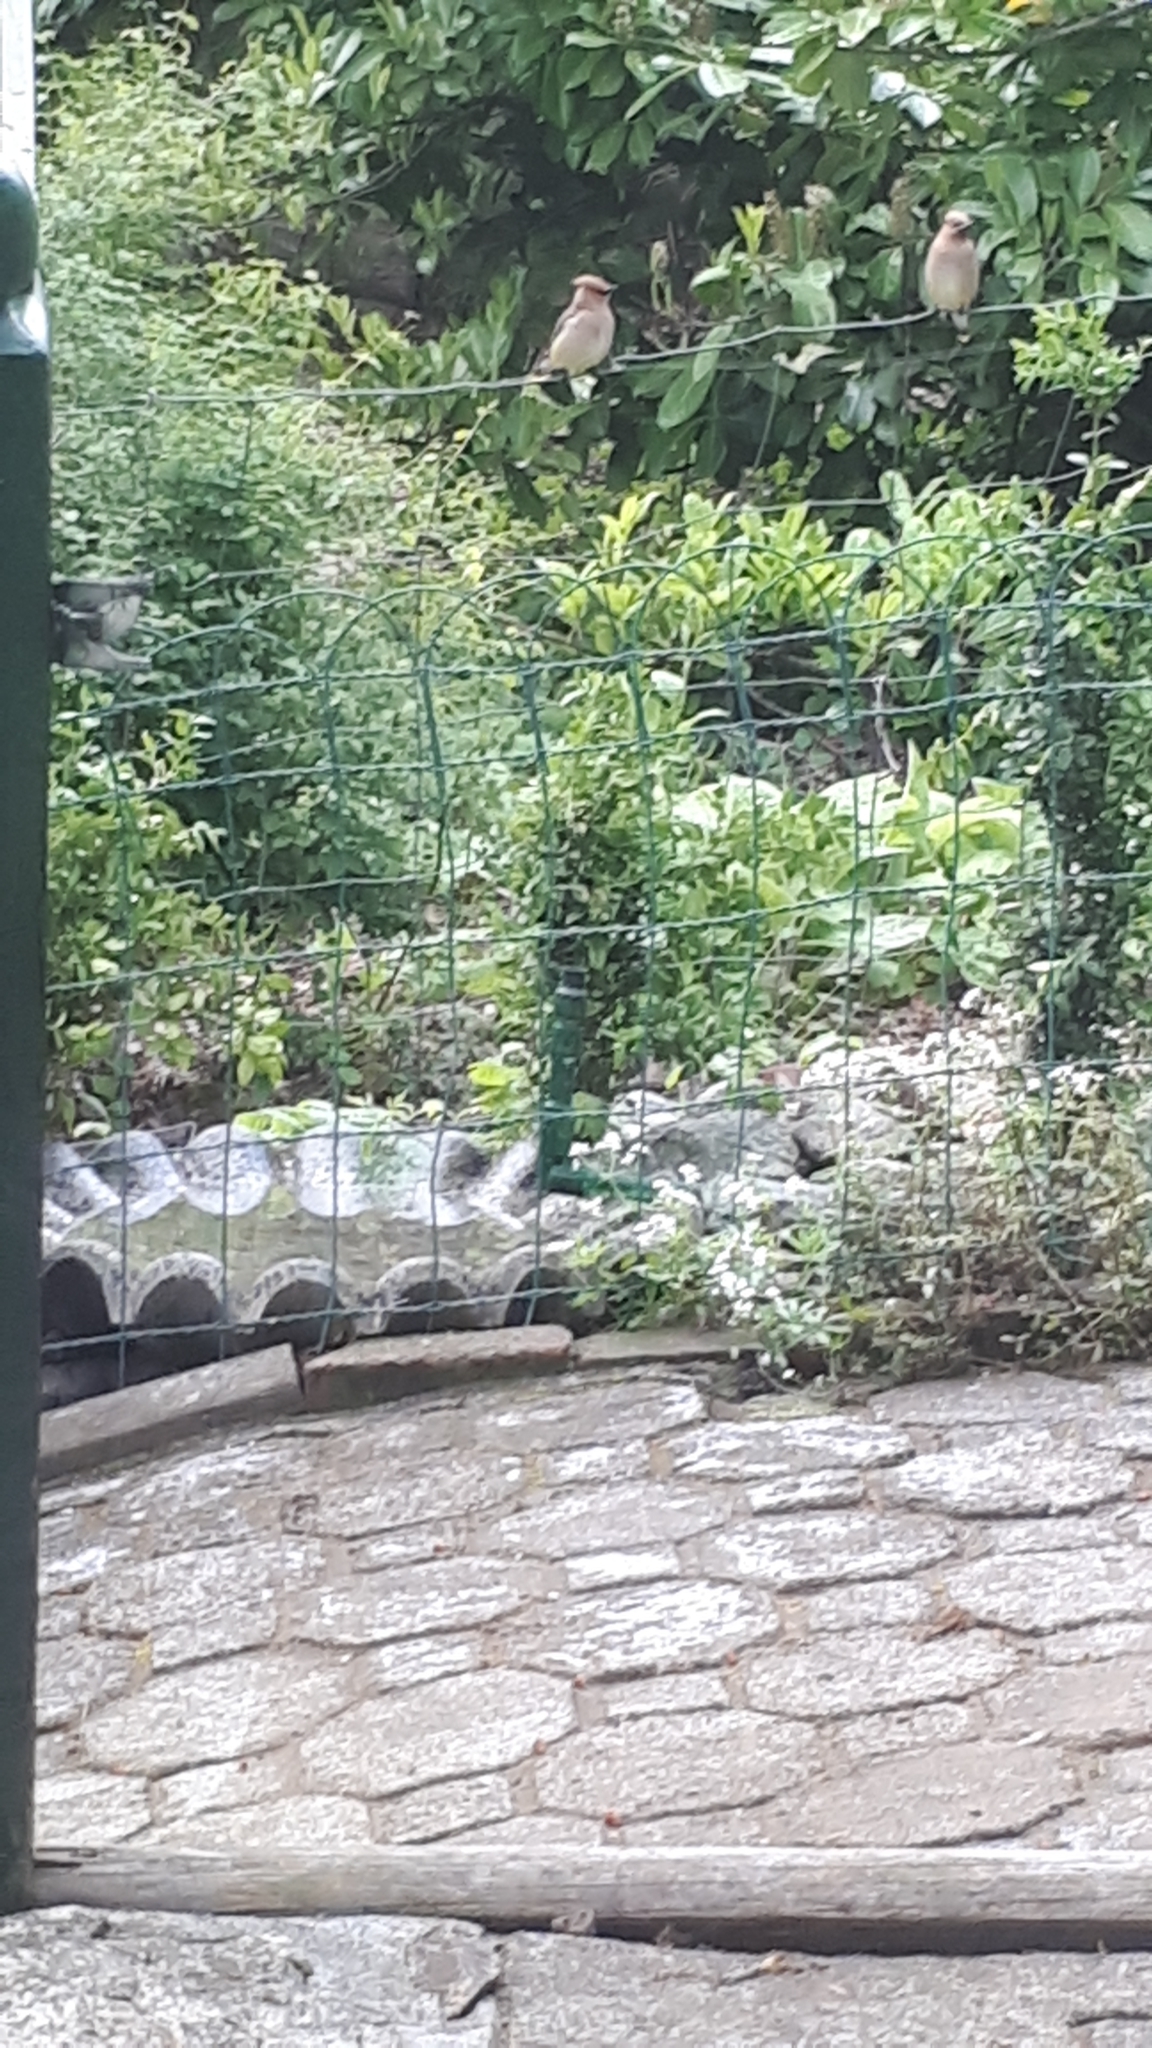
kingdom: Animalia
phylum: Chordata
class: Aves
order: Passeriformes
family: Bombycillidae
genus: Bombycilla
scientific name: Bombycilla cedrorum
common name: Cedar waxwing
